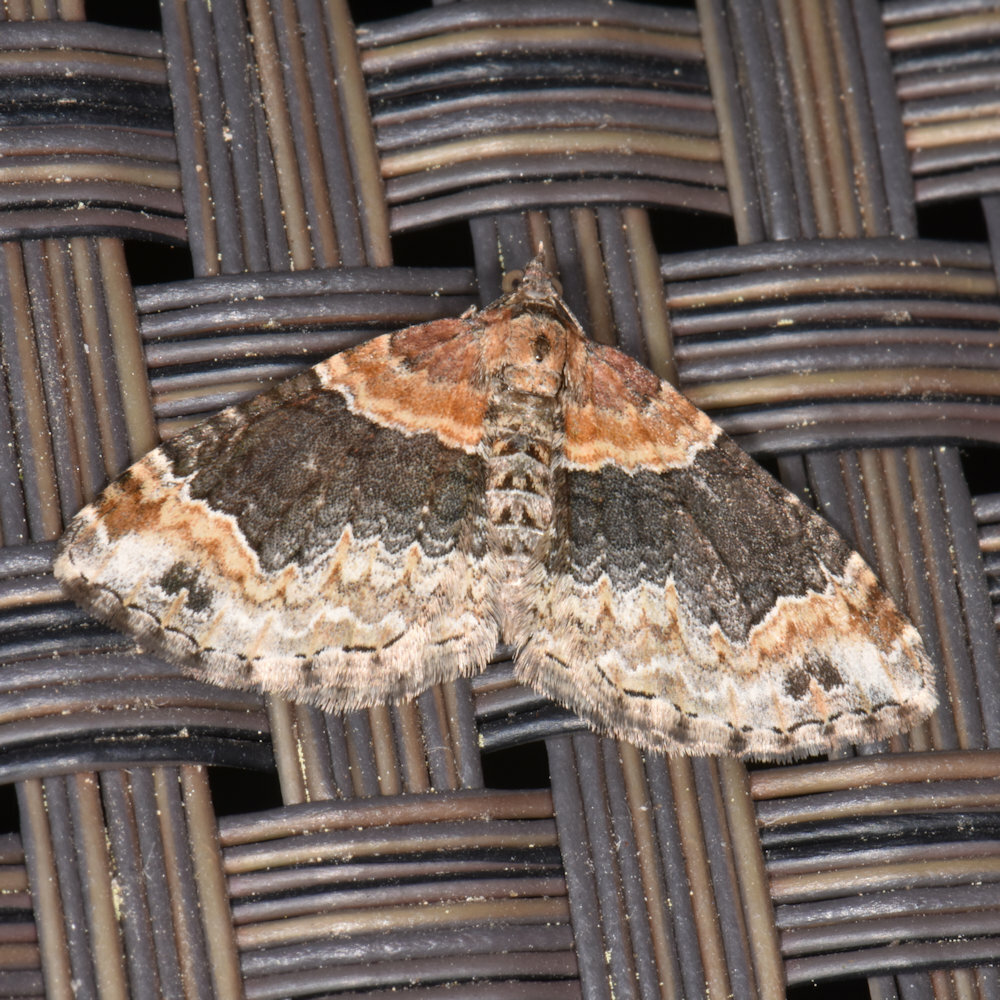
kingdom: Animalia
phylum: Arthropoda
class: Insecta
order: Lepidoptera
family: Geometridae
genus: Xanthorhoe
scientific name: Xanthorhoe ferrugata
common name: Dark-barred twin-spot carpet
